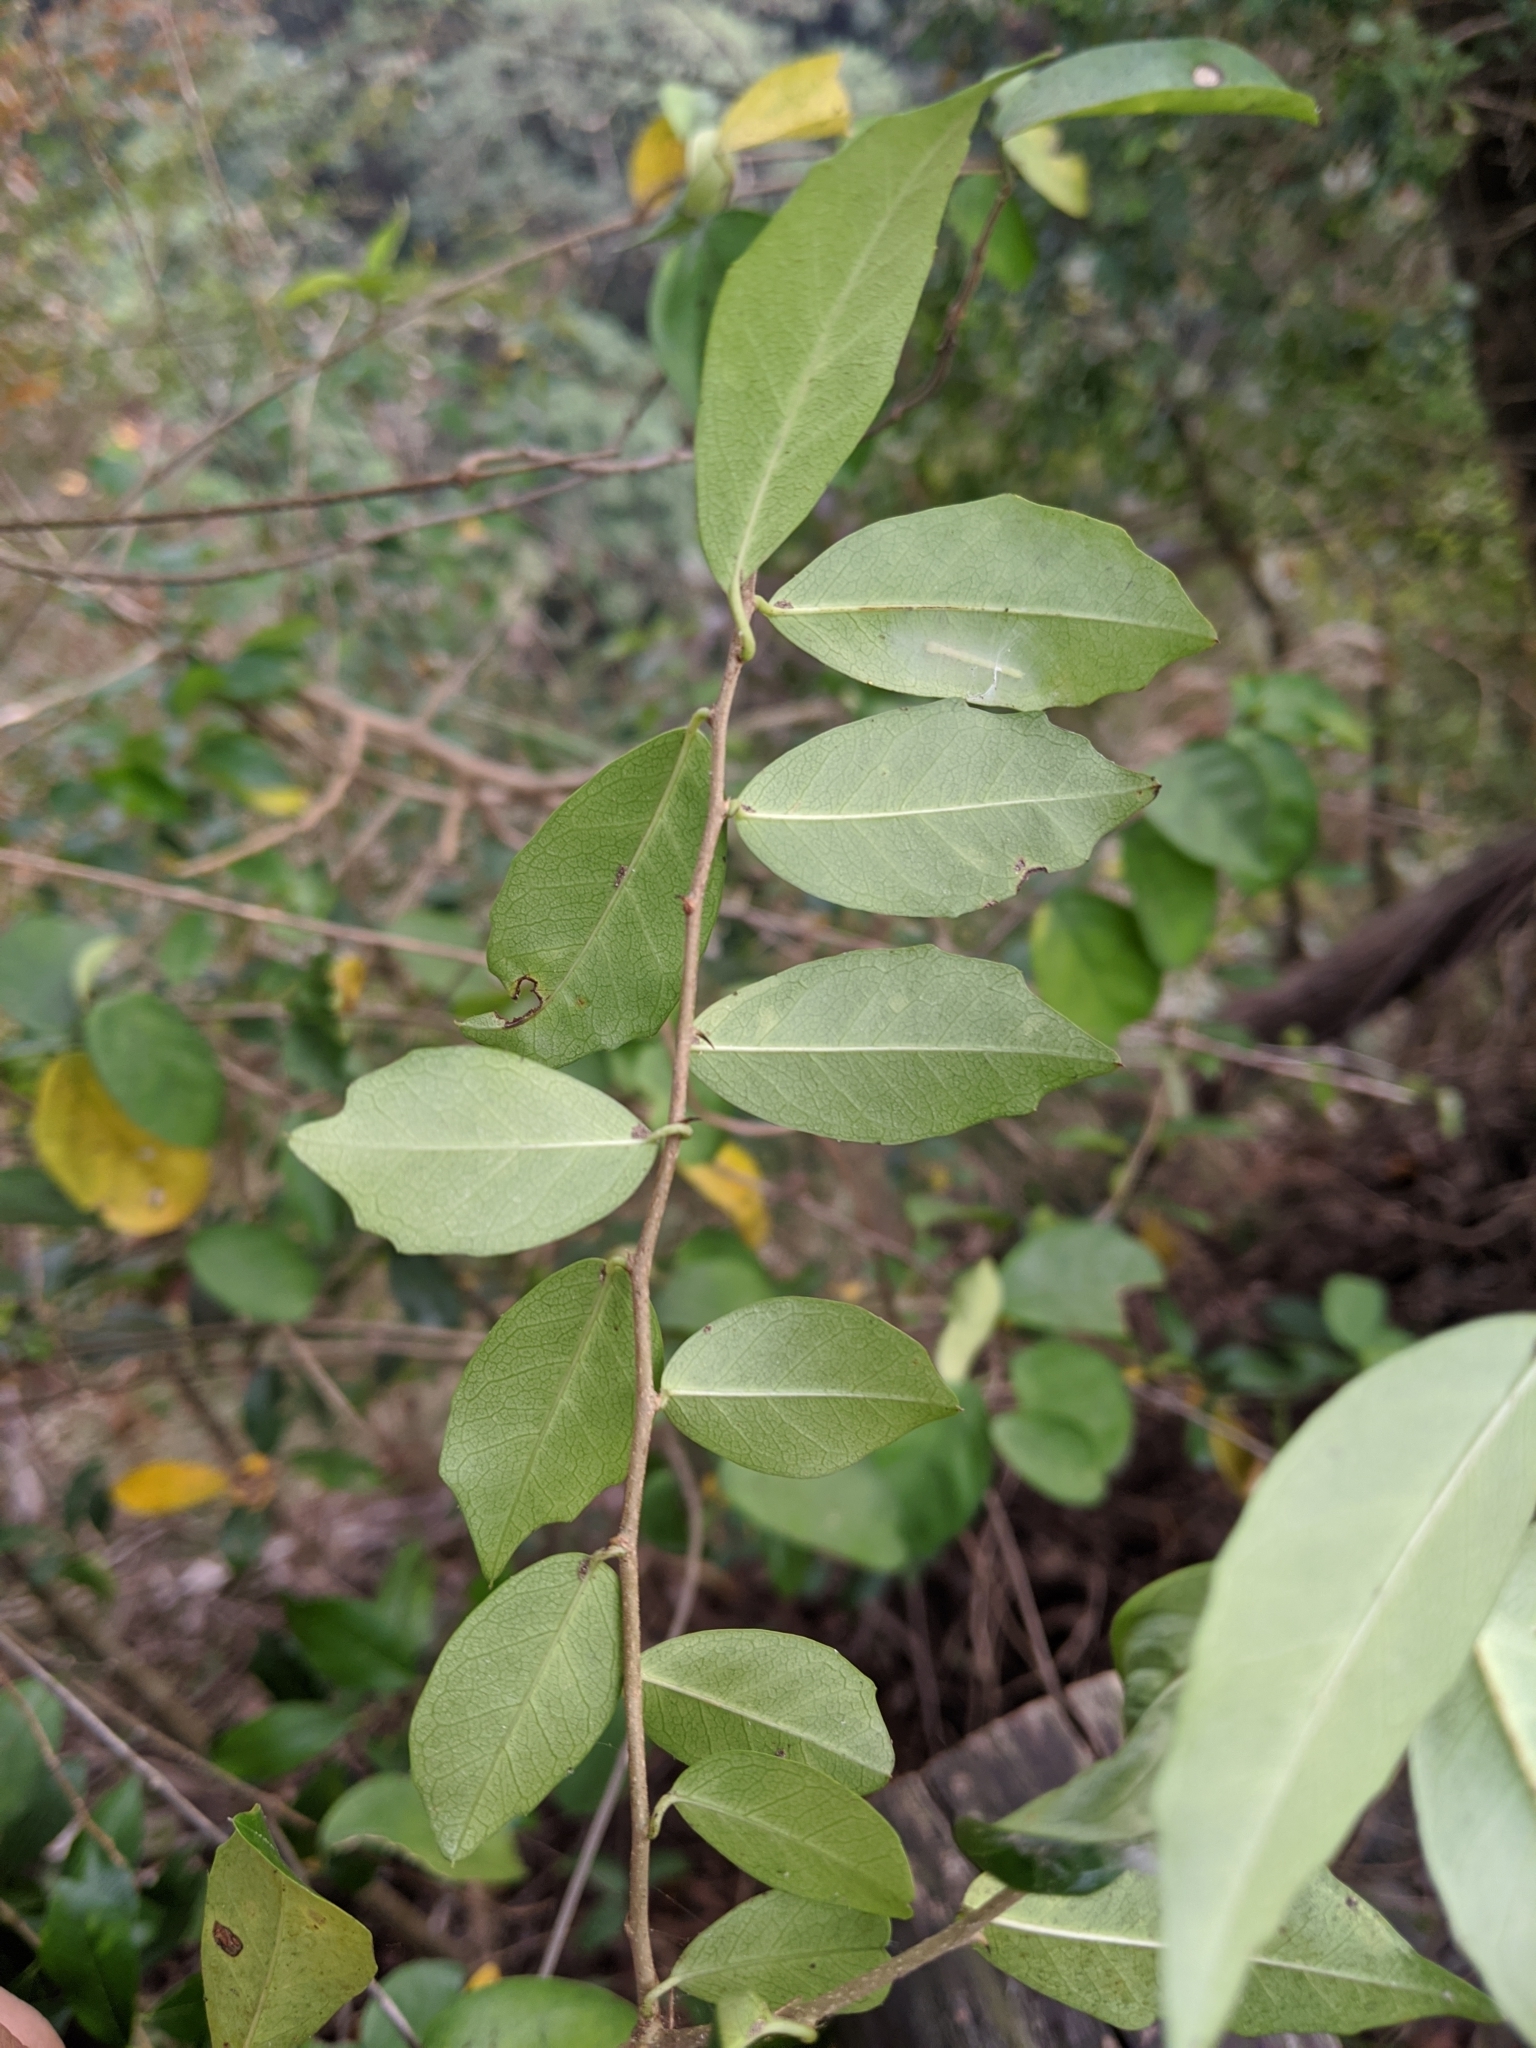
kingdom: Plantae
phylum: Tracheophyta
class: Magnoliopsida
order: Rosales
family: Moraceae
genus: Maclura
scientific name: Maclura cochinchinensis
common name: Cockspurthorn
